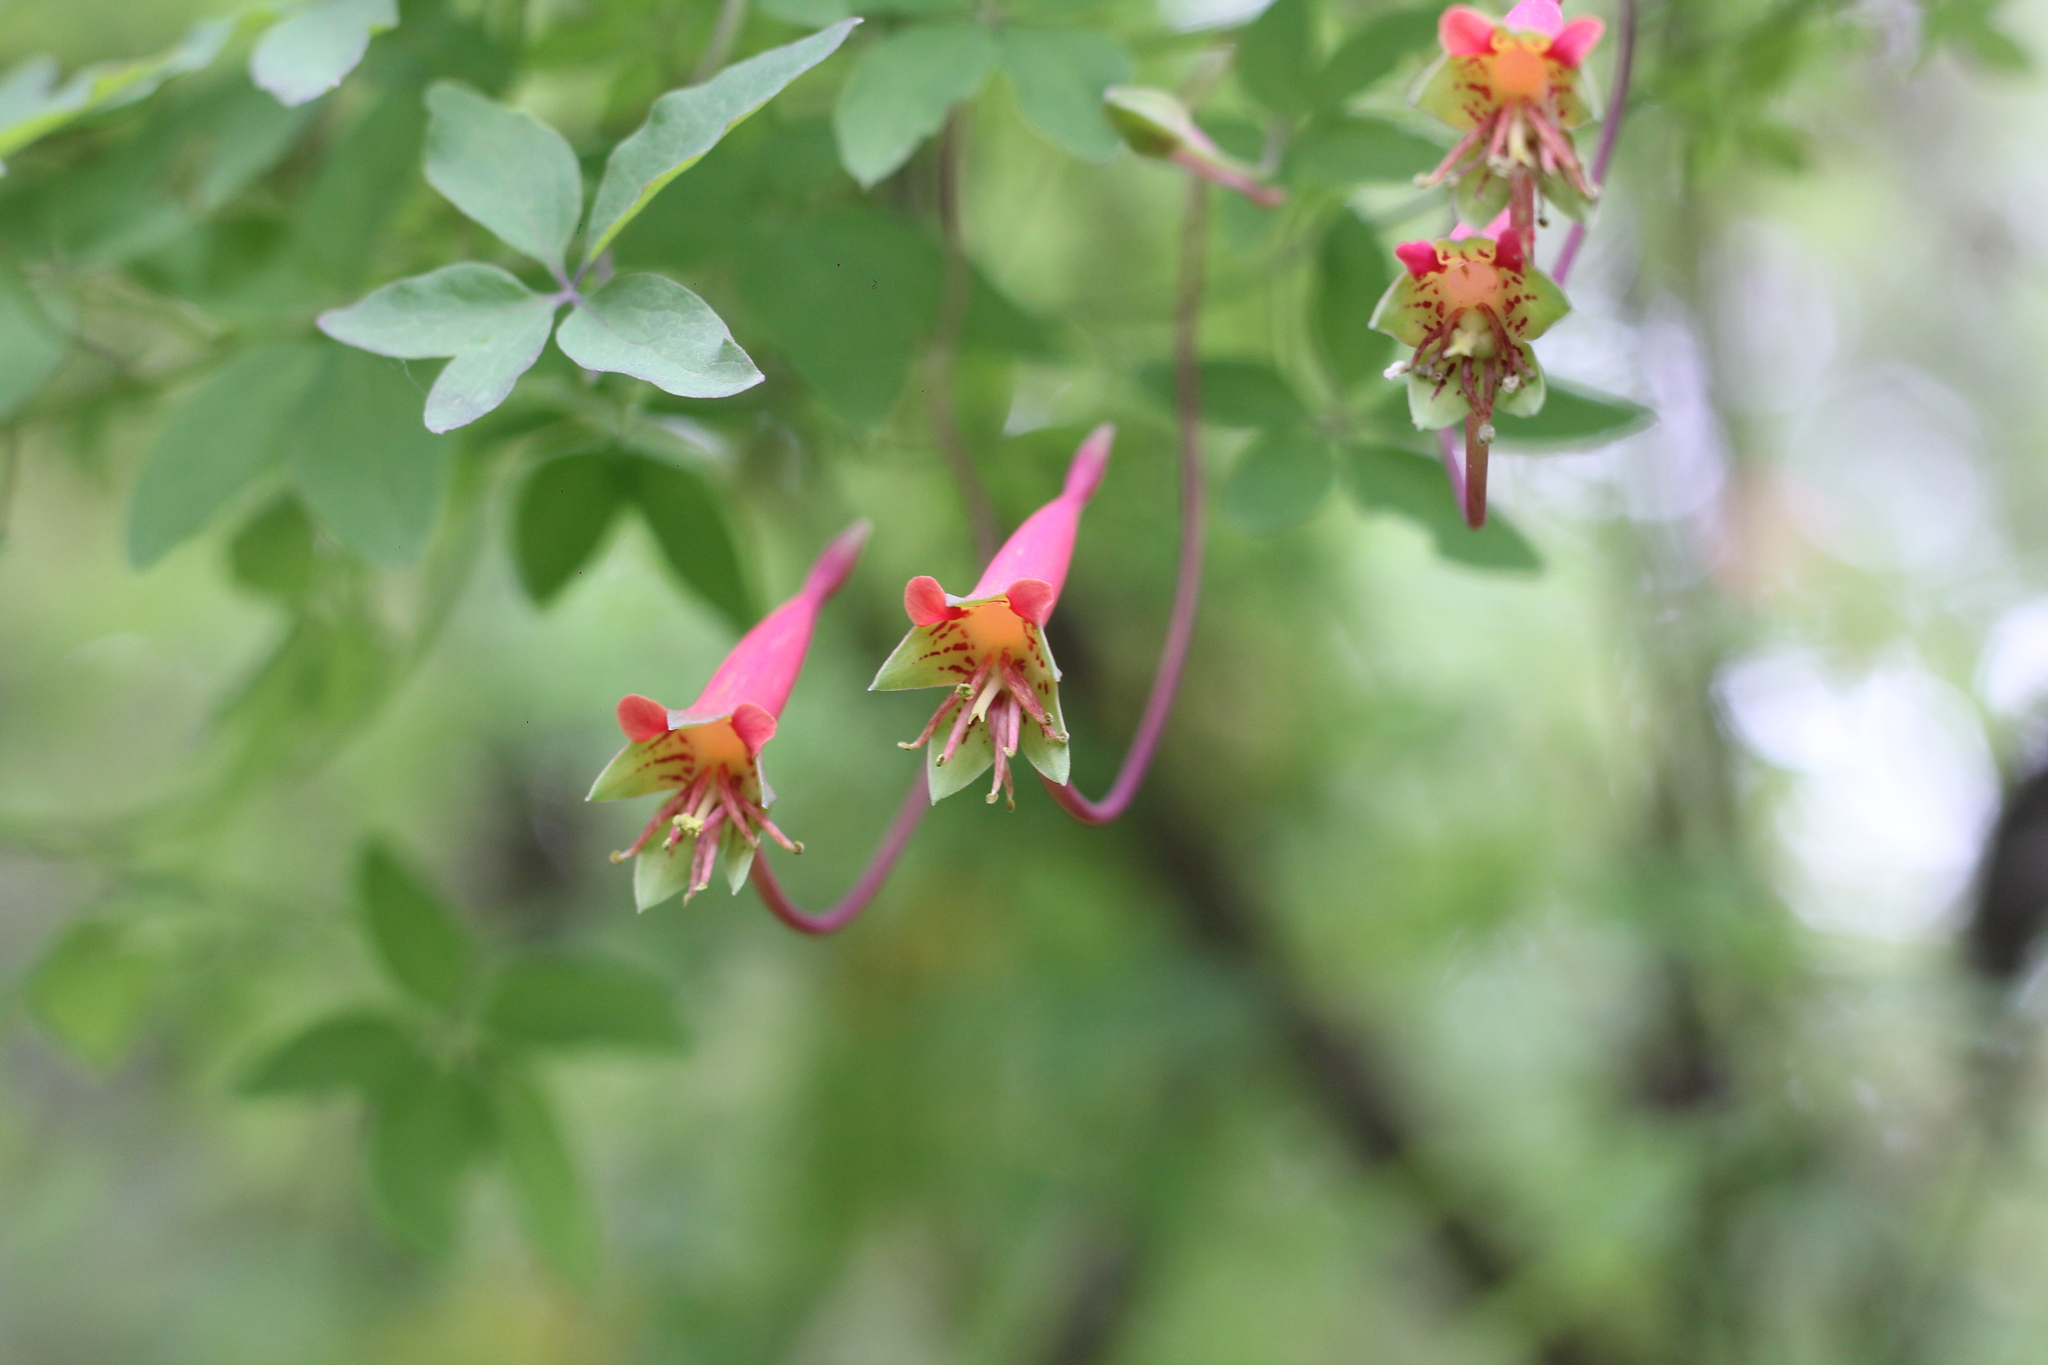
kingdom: Plantae
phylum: Tracheophyta
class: Magnoliopsida
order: Brassicales
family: Tropaeolaceae
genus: Tropaeolum
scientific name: Tropaeolum pentaphyllum
